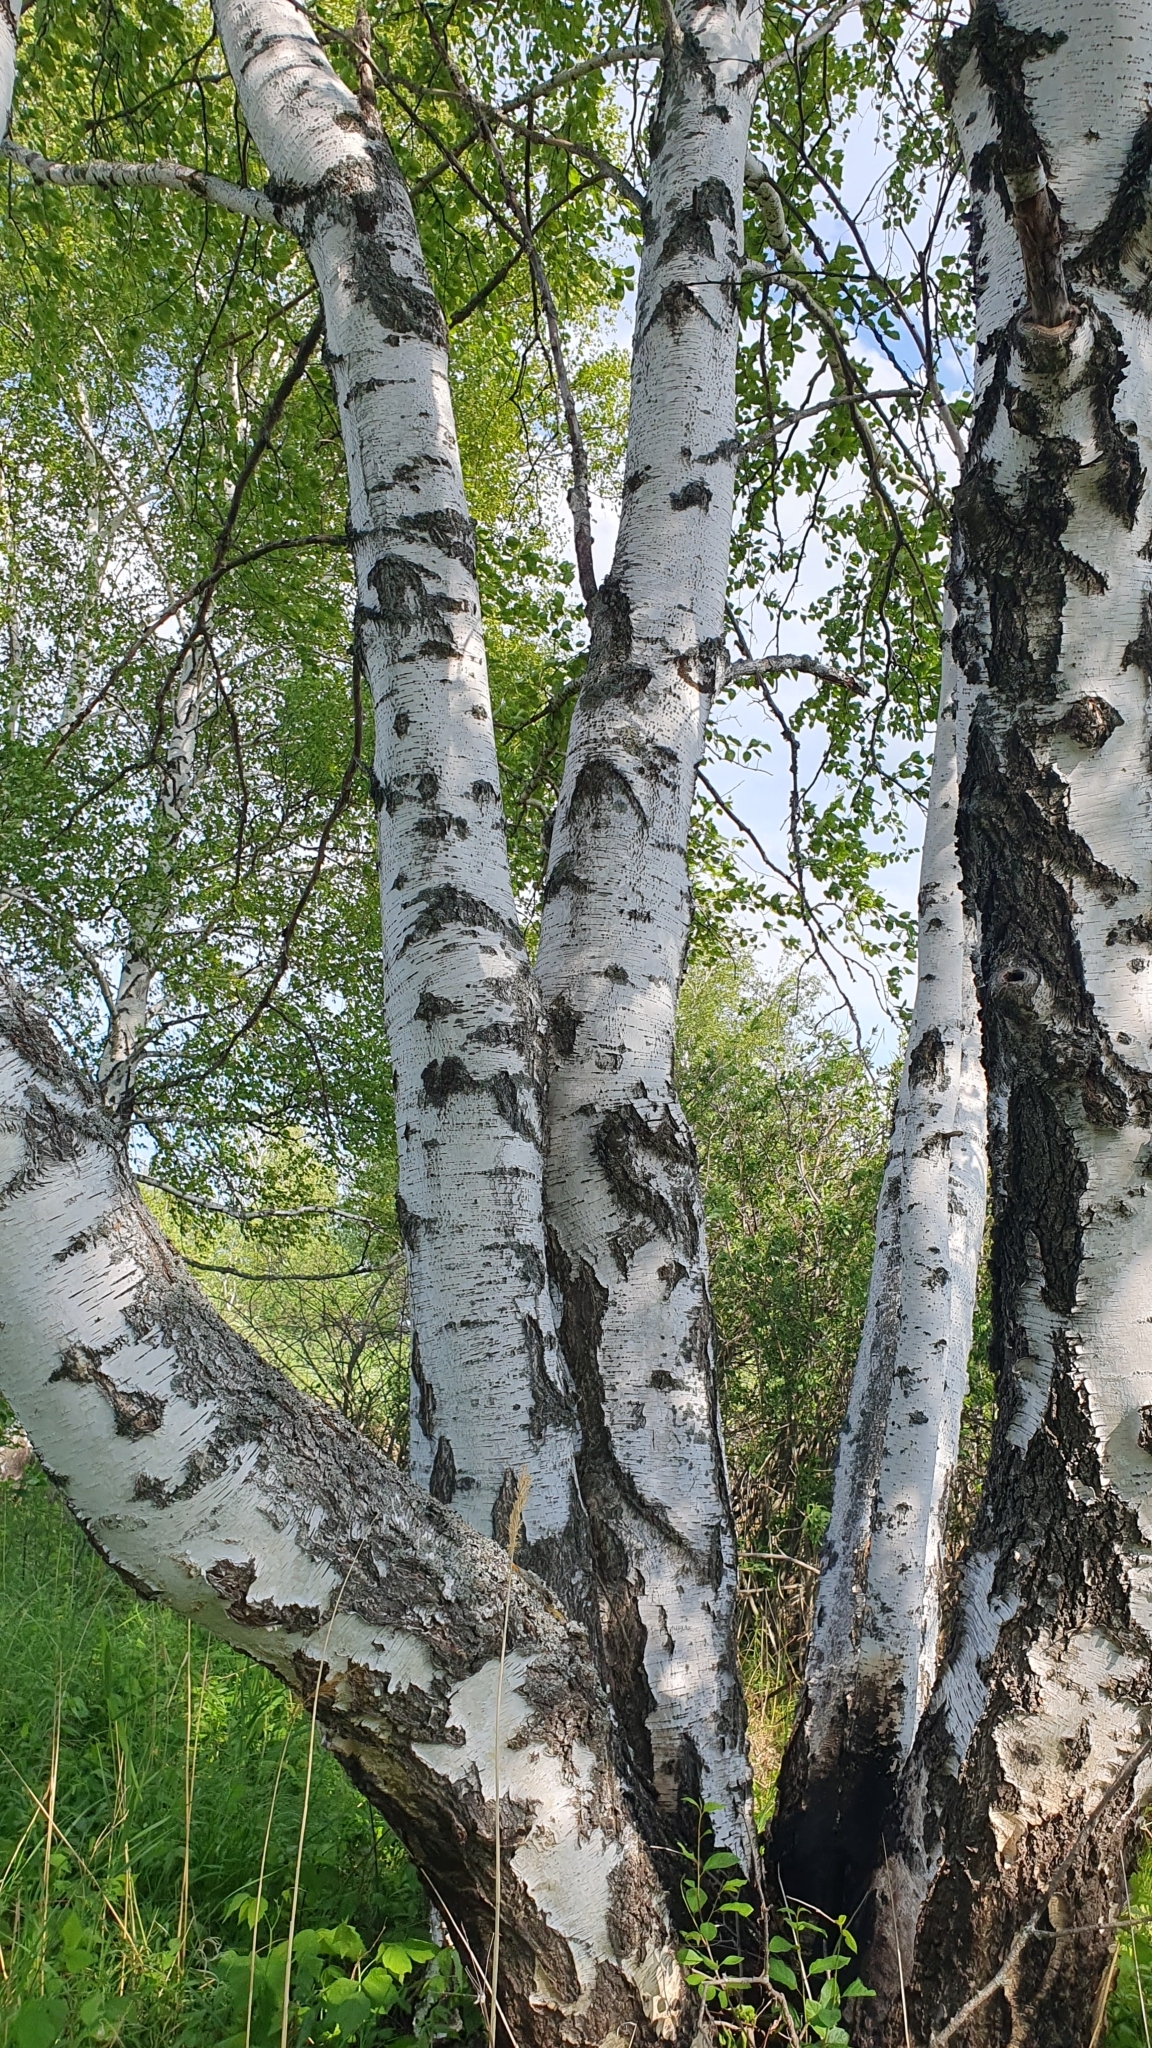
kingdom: Plantae
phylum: Tracheophyta
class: Magnoliopsida
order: Fagales
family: Betulaceae
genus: Betula
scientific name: Betula pendula
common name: Silver birch
